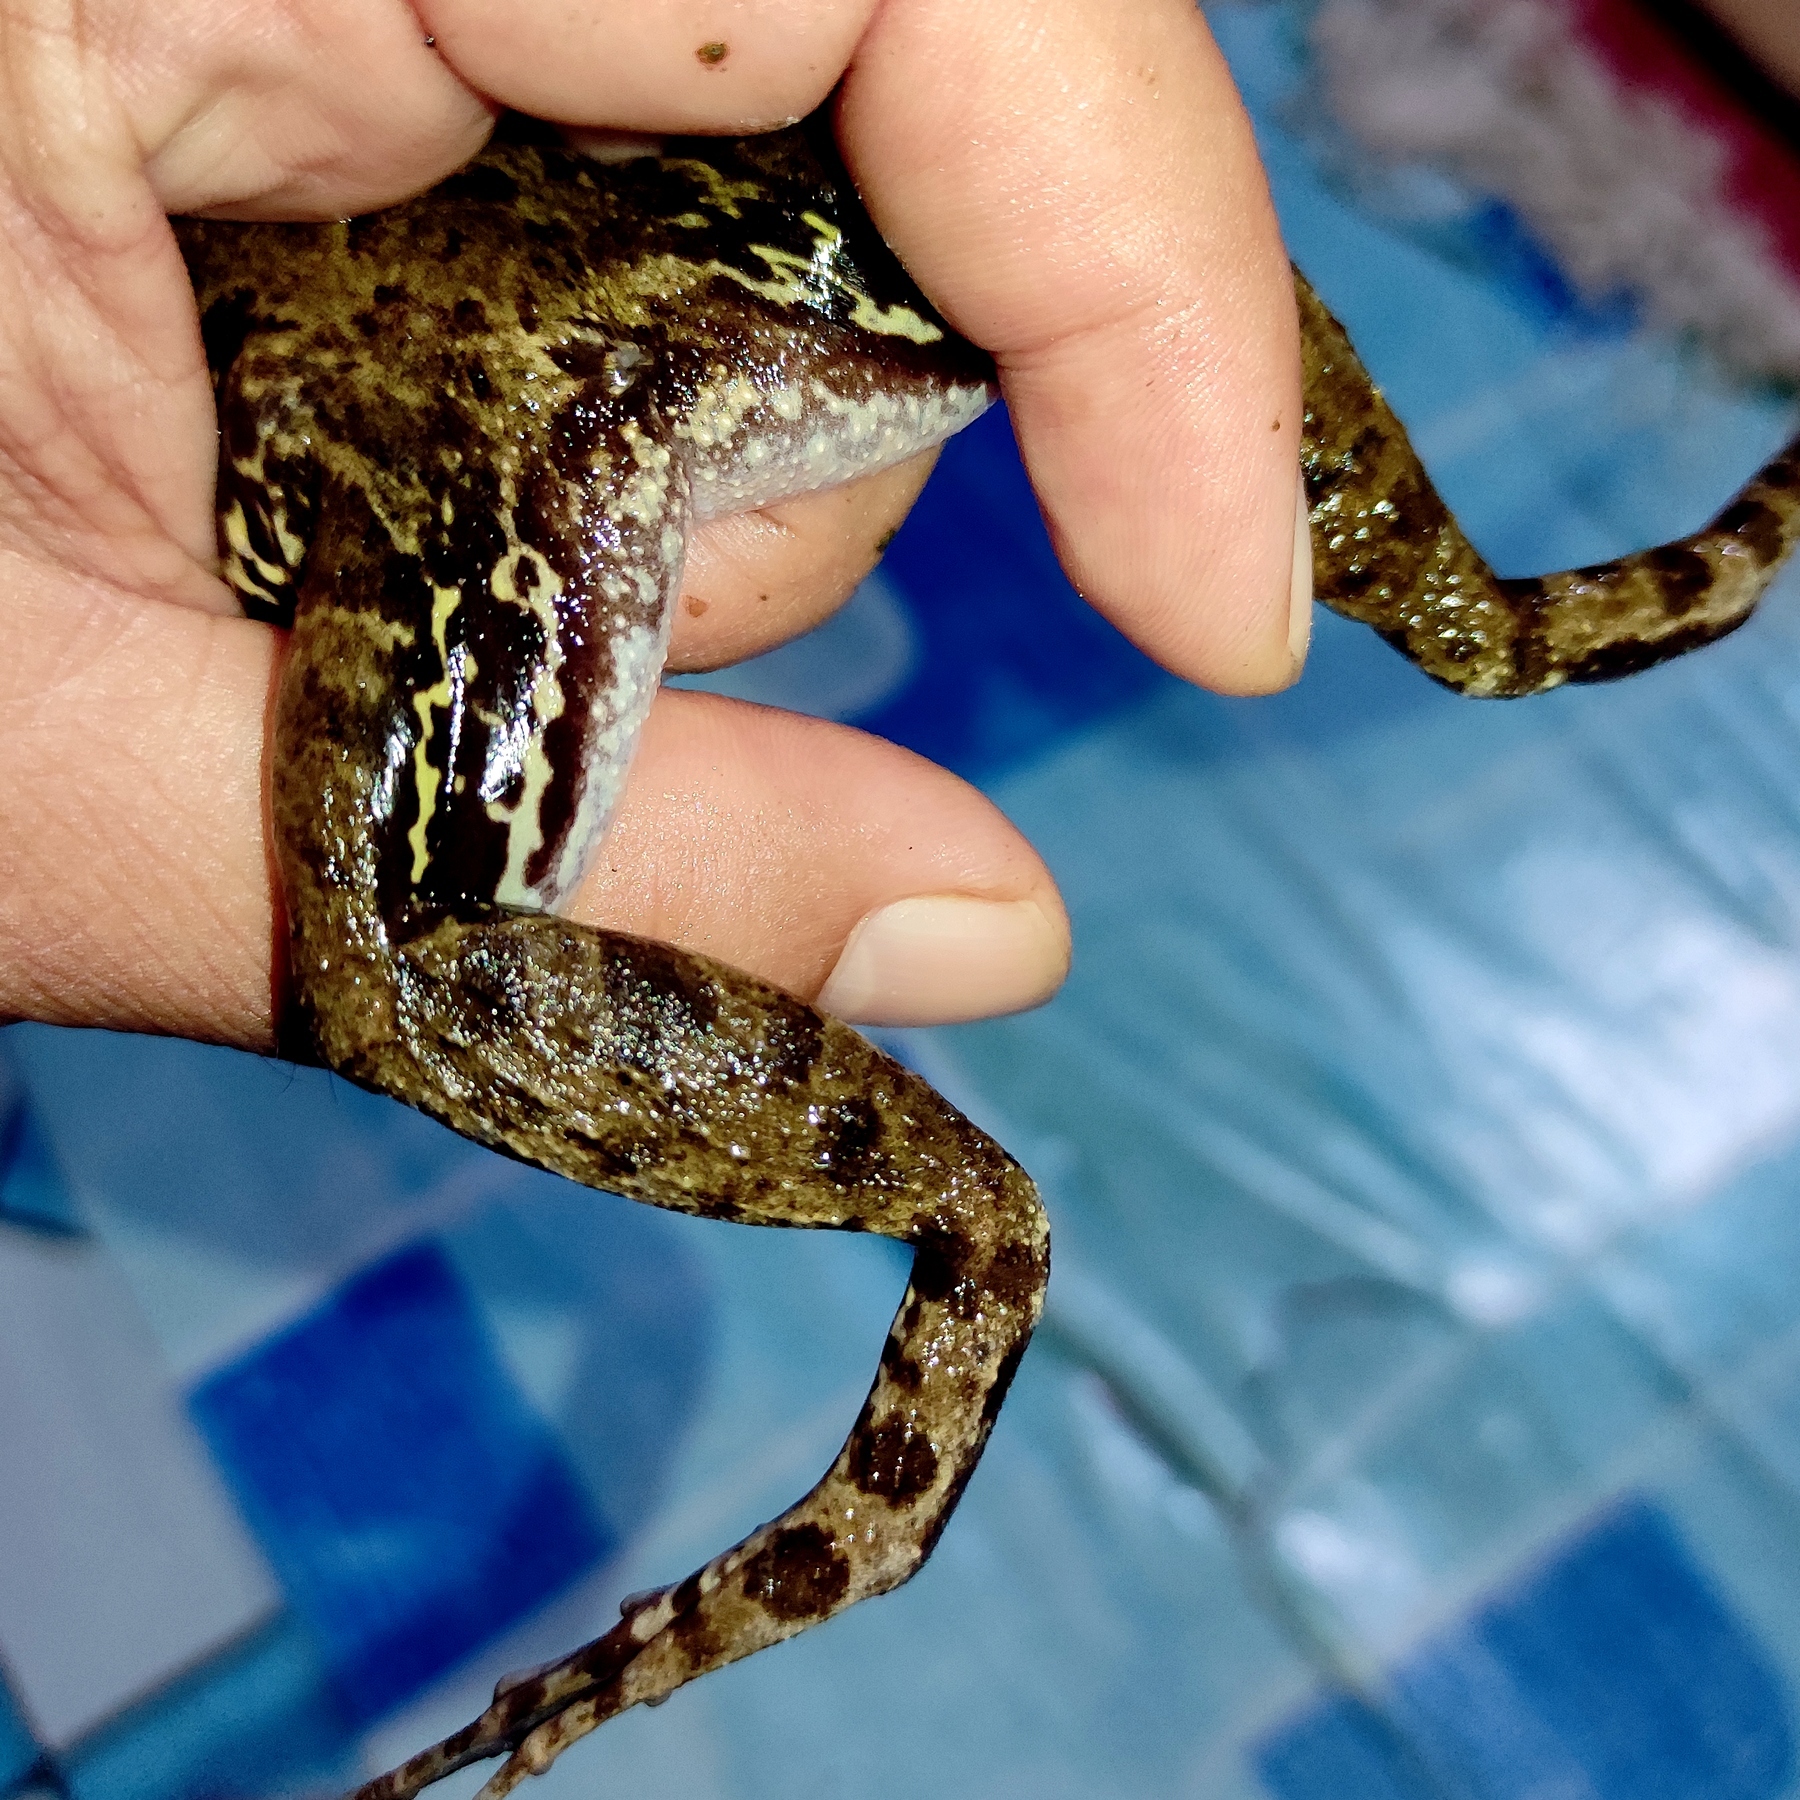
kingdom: Animalia
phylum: Chordata
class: Amphibia
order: Anura
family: Dicroglossidae
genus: Fejervarya
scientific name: Fejervarya cancrivora
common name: Crab-eating frog/mangrove frog/rice field frog/asian brackish frog
